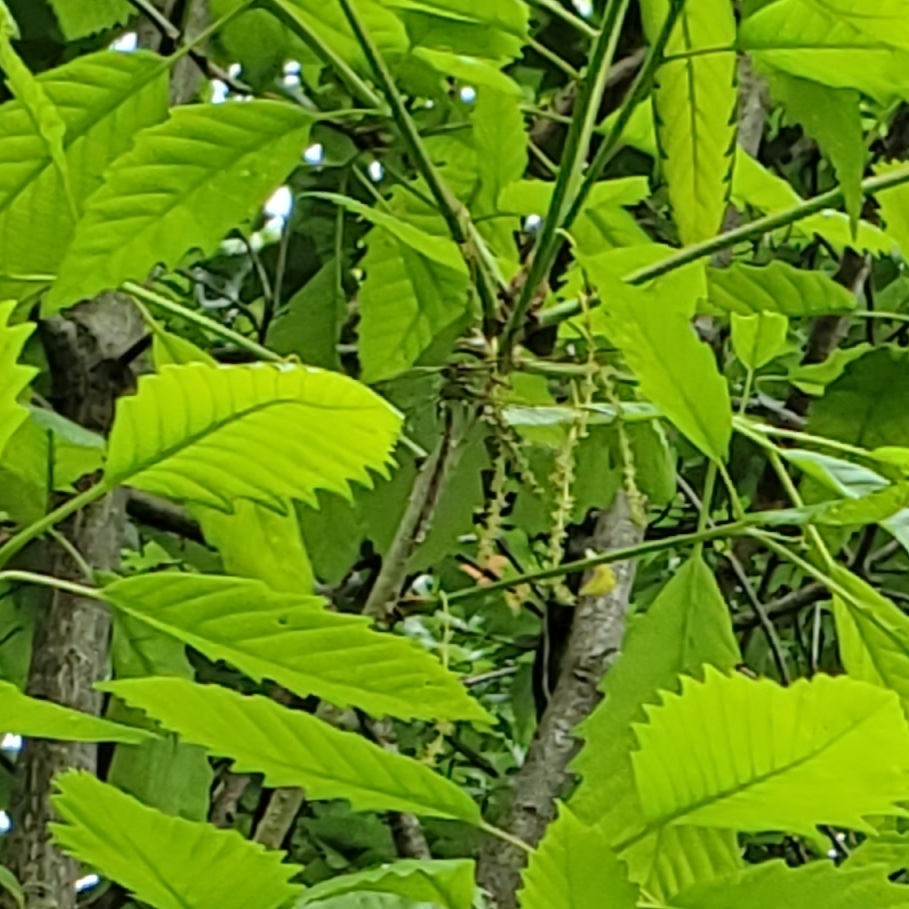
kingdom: Animalia
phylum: Arthropoda
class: Insecta
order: Odonata
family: Aeshnidae
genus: Anax
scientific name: Anax junius
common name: Common green darner
